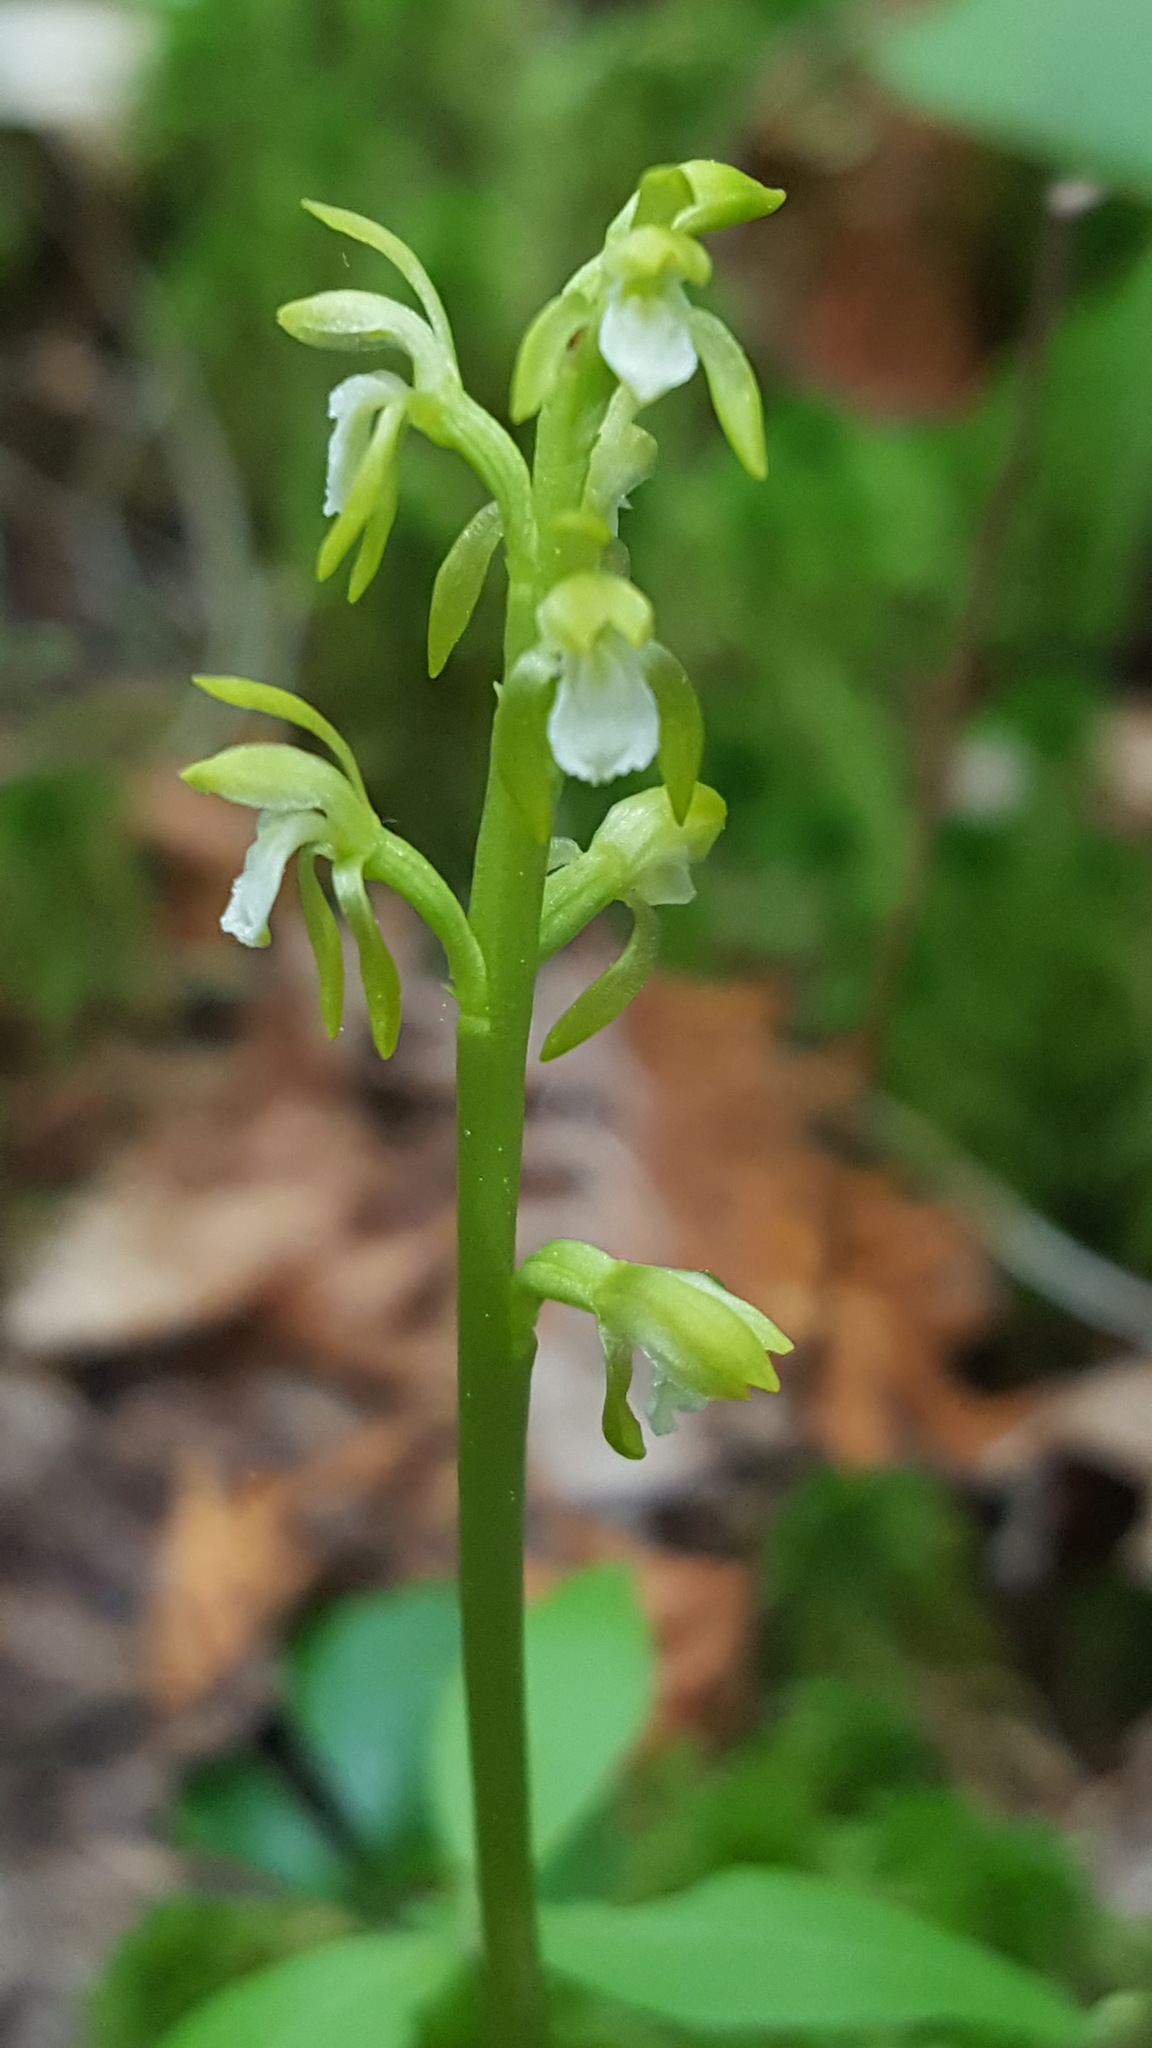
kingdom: Plantae
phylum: Tracheophyta
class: Liliopsida
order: Asparagales
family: Orchidaceae
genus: Corallorhiza
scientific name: Corallorhiza trifida
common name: Yellow coralroot
